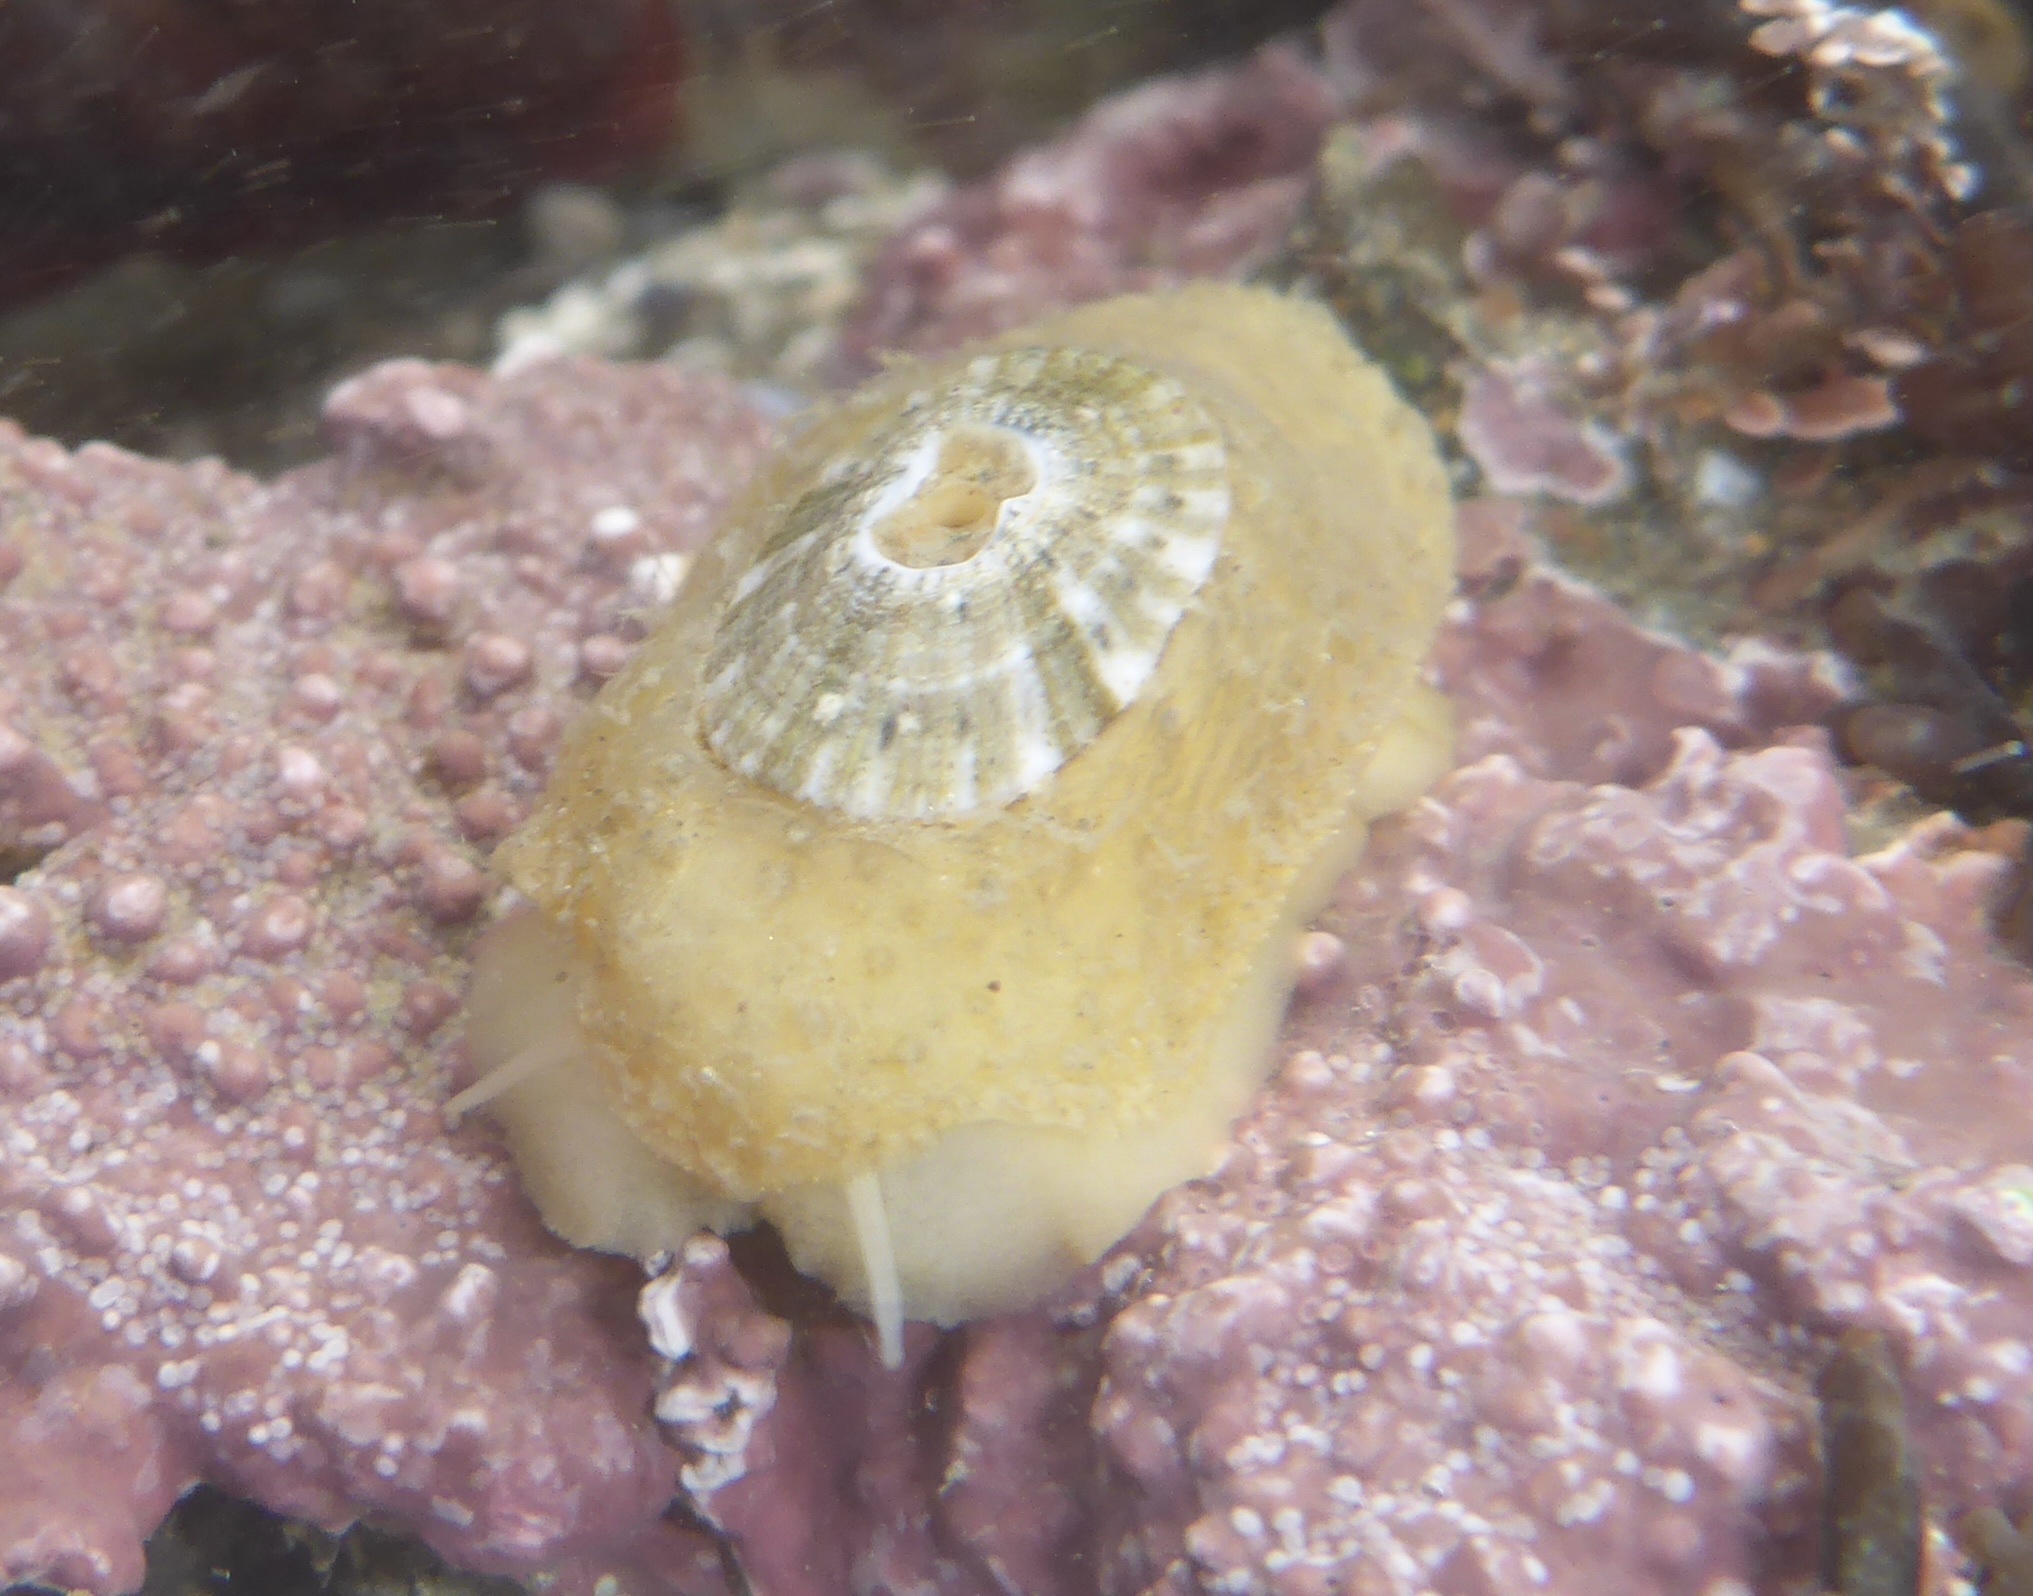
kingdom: Animalia
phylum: Mollusca
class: Gastropoda
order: Lepetellida
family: Fissurellidae
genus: Fissurellidea
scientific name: Fissurellidea bimaculata
